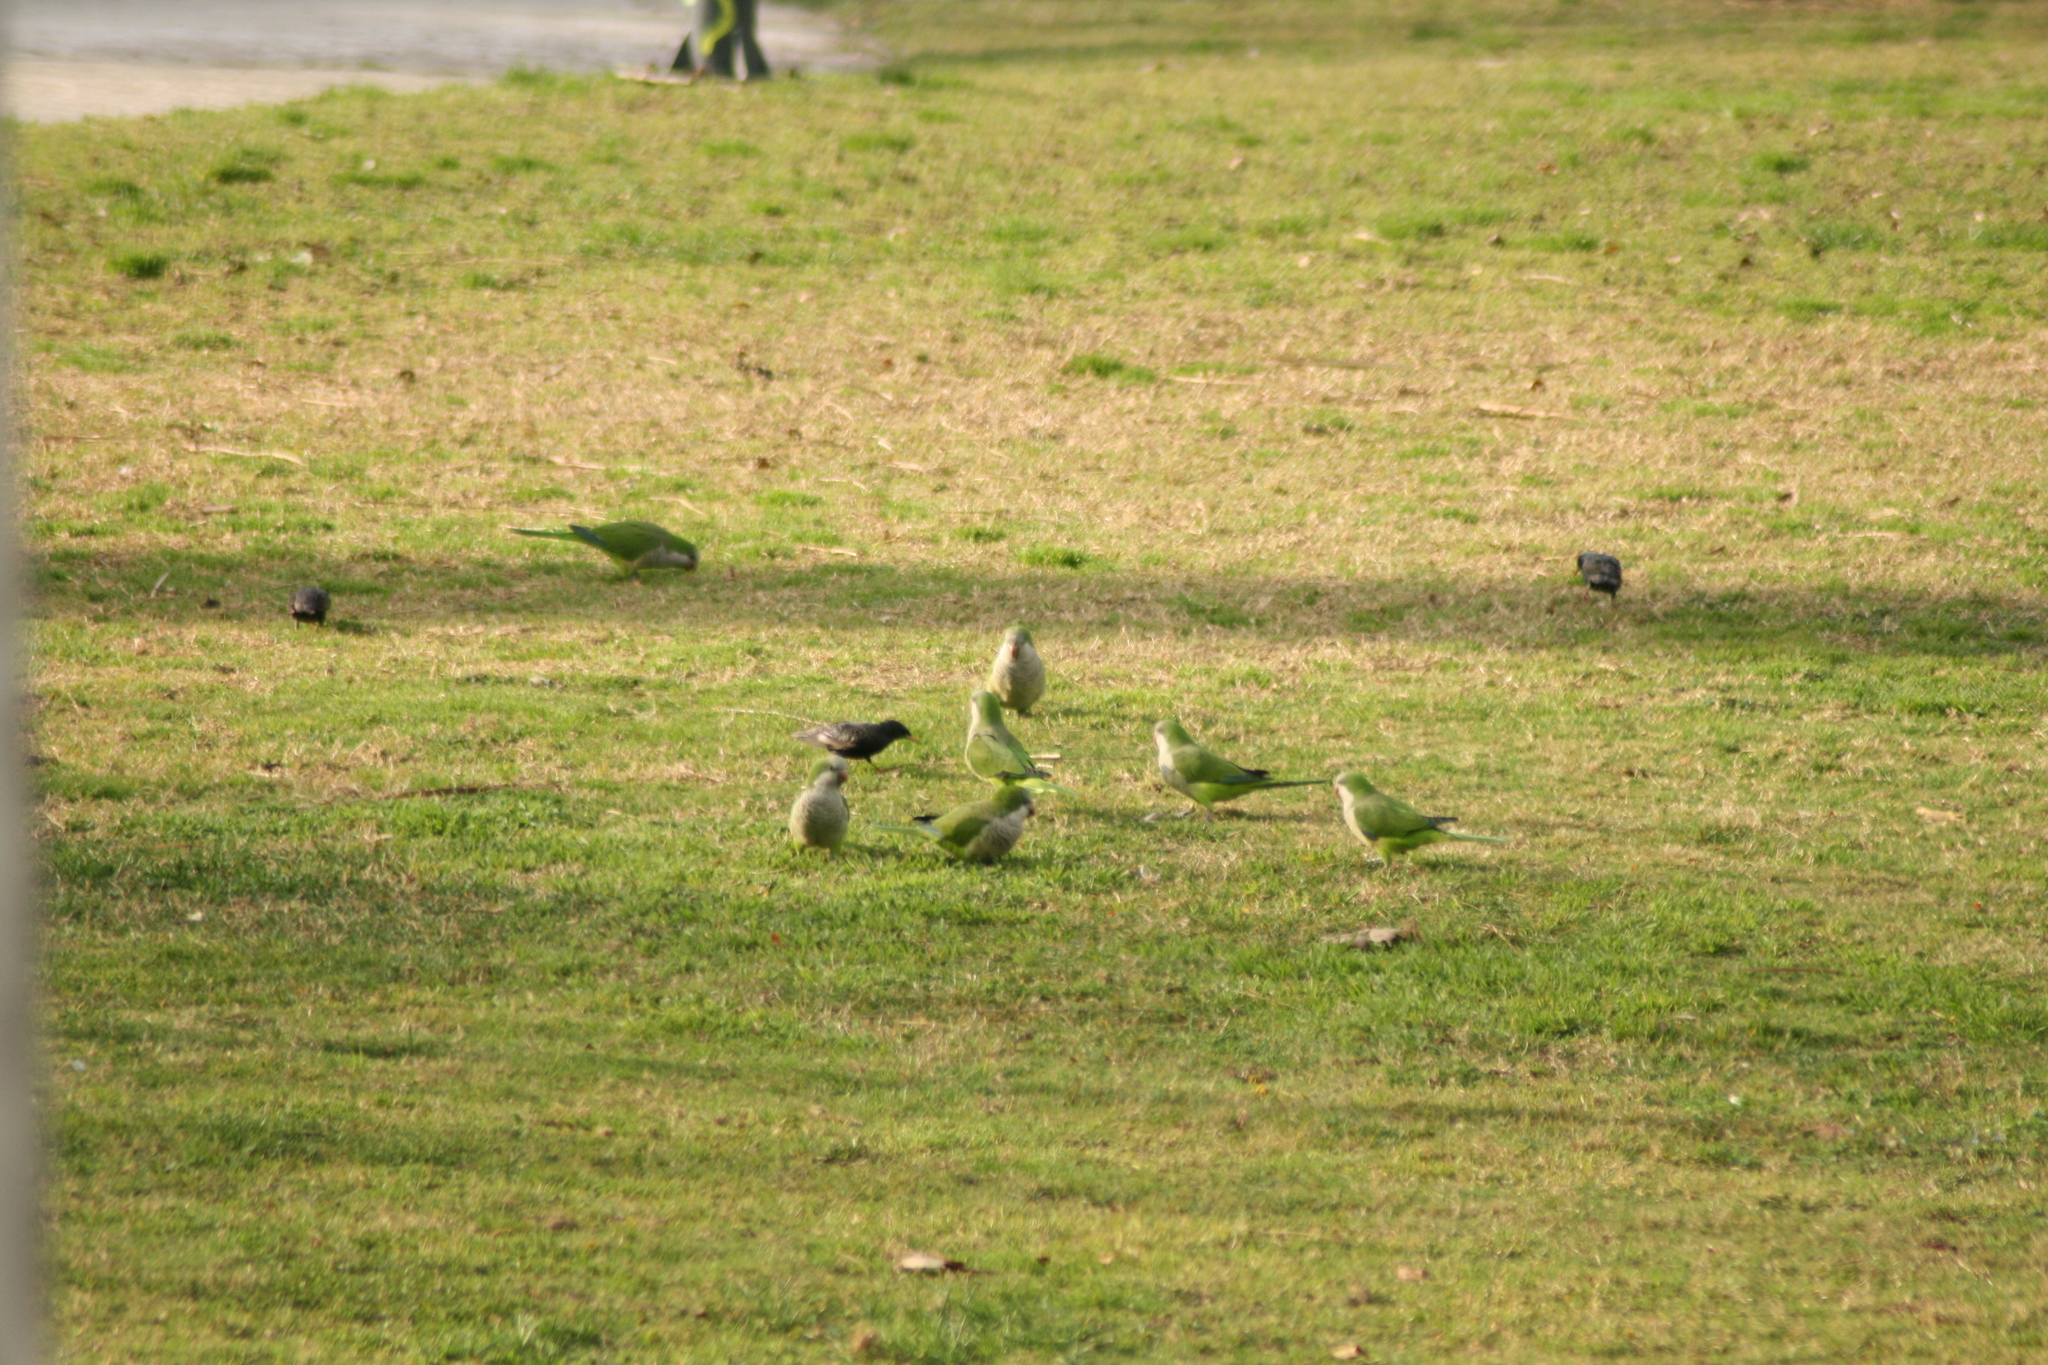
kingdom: Animalia
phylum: Chordata
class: Aves
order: Psittaciformes
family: Psittacidae
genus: Myiopsitta
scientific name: Myiopsitta monachus
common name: Monk parakeet
